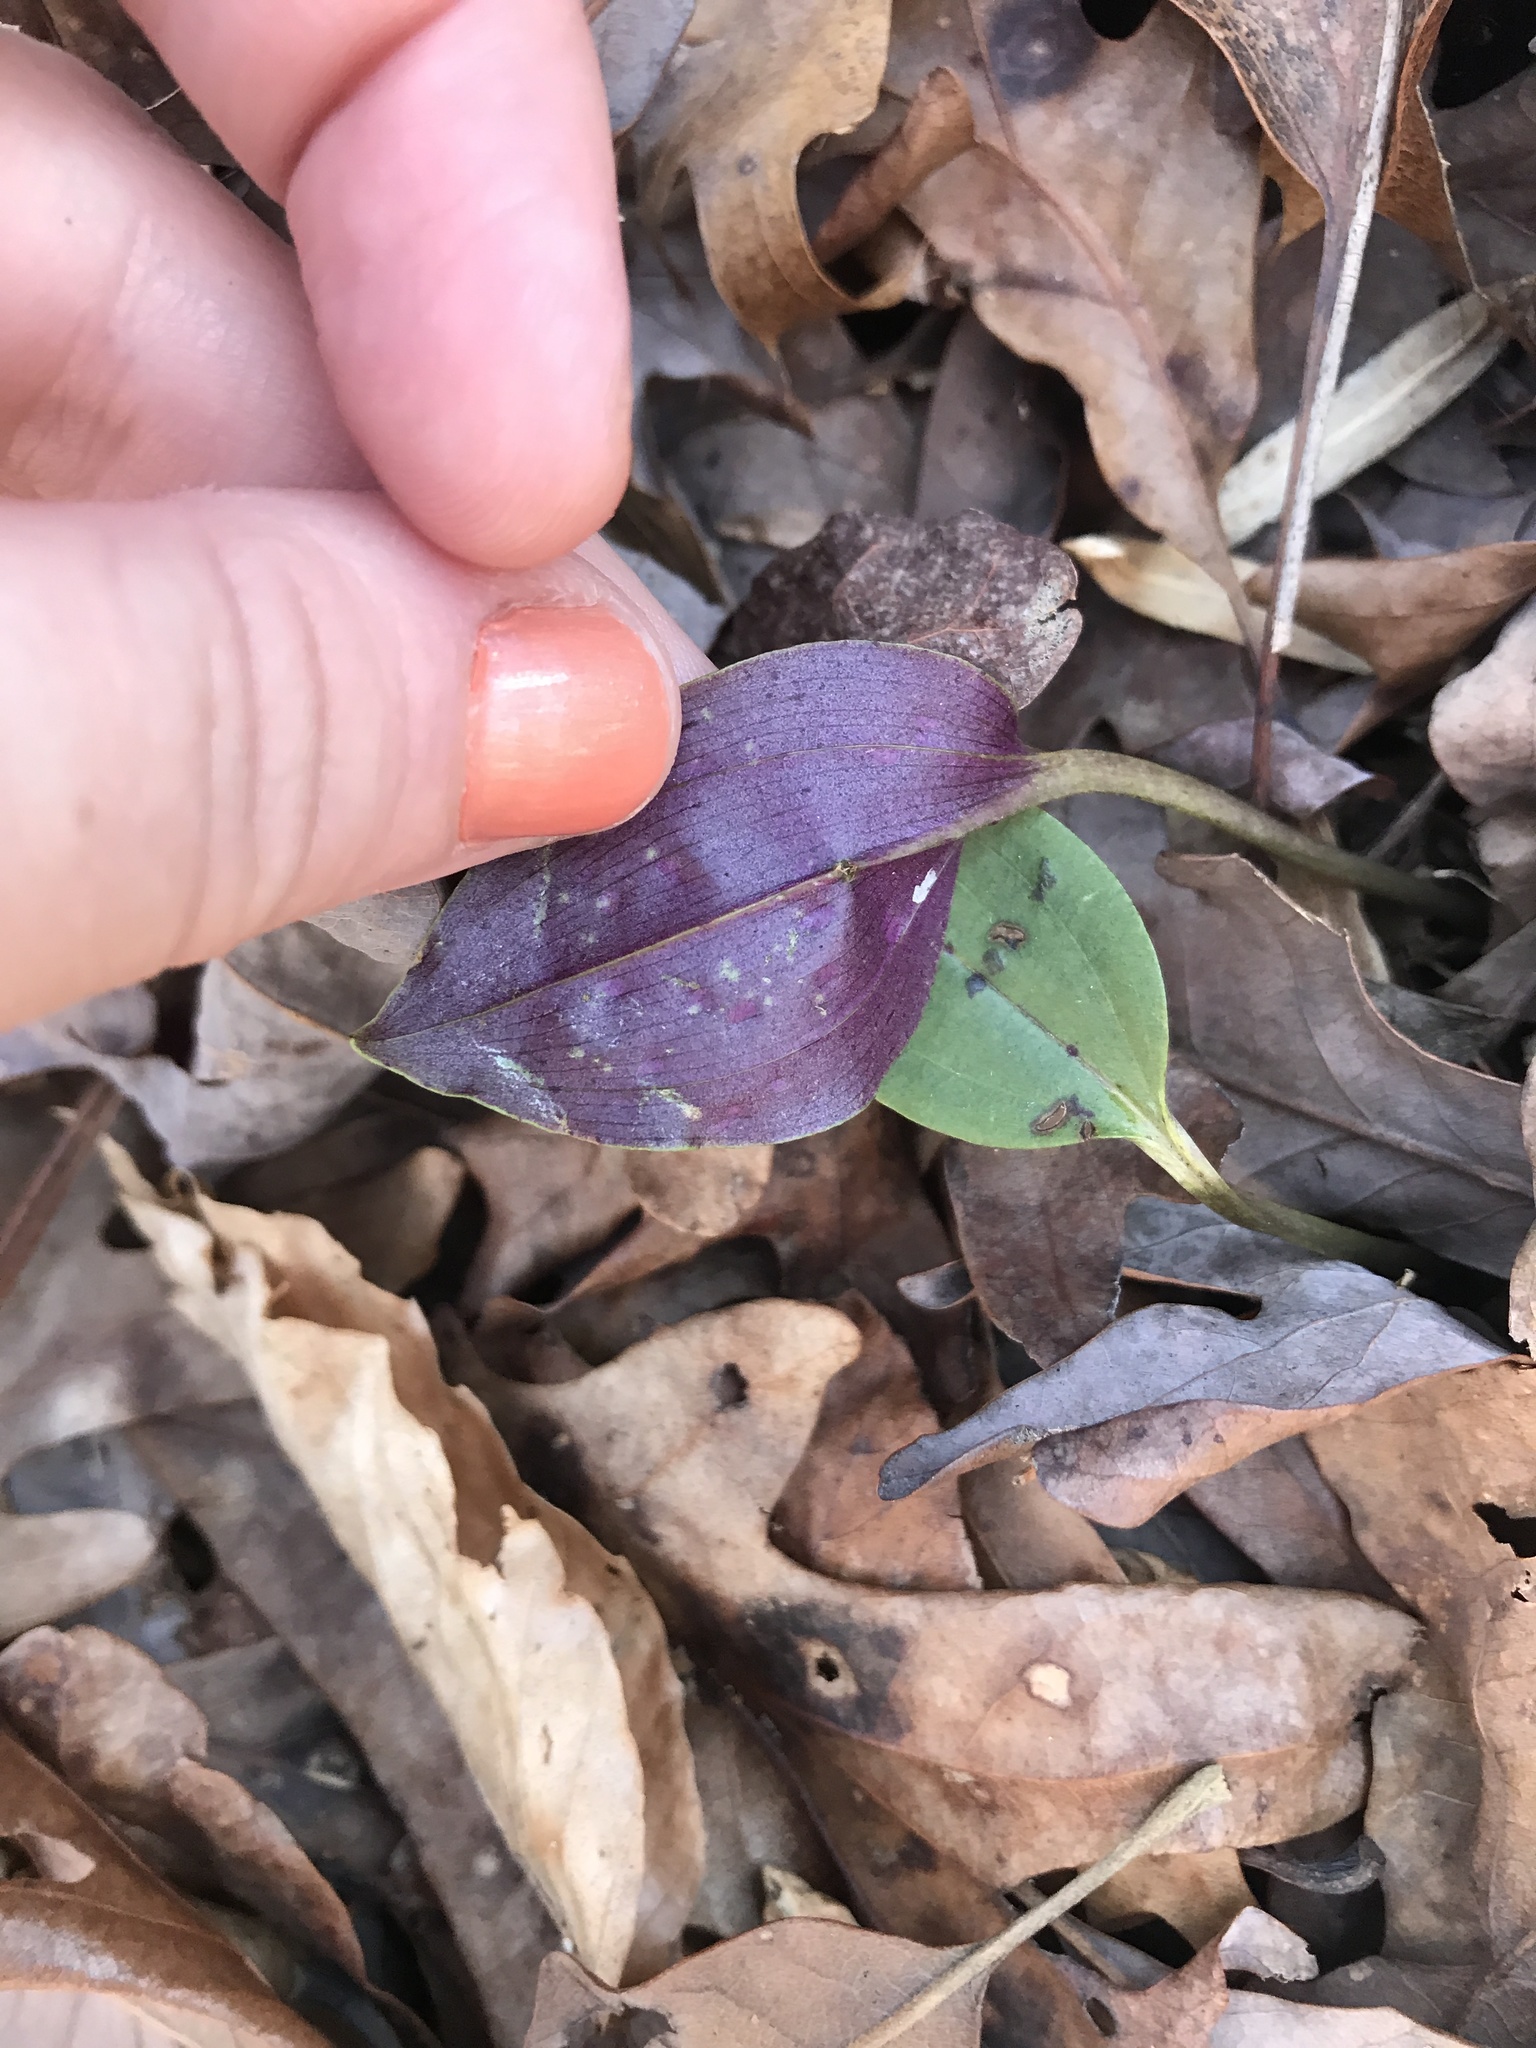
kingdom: Plantae
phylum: Tracheophyta
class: Liliopsida
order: Asparagales
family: Orchidaceae
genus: Tipularia
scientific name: Tipularia discolor
